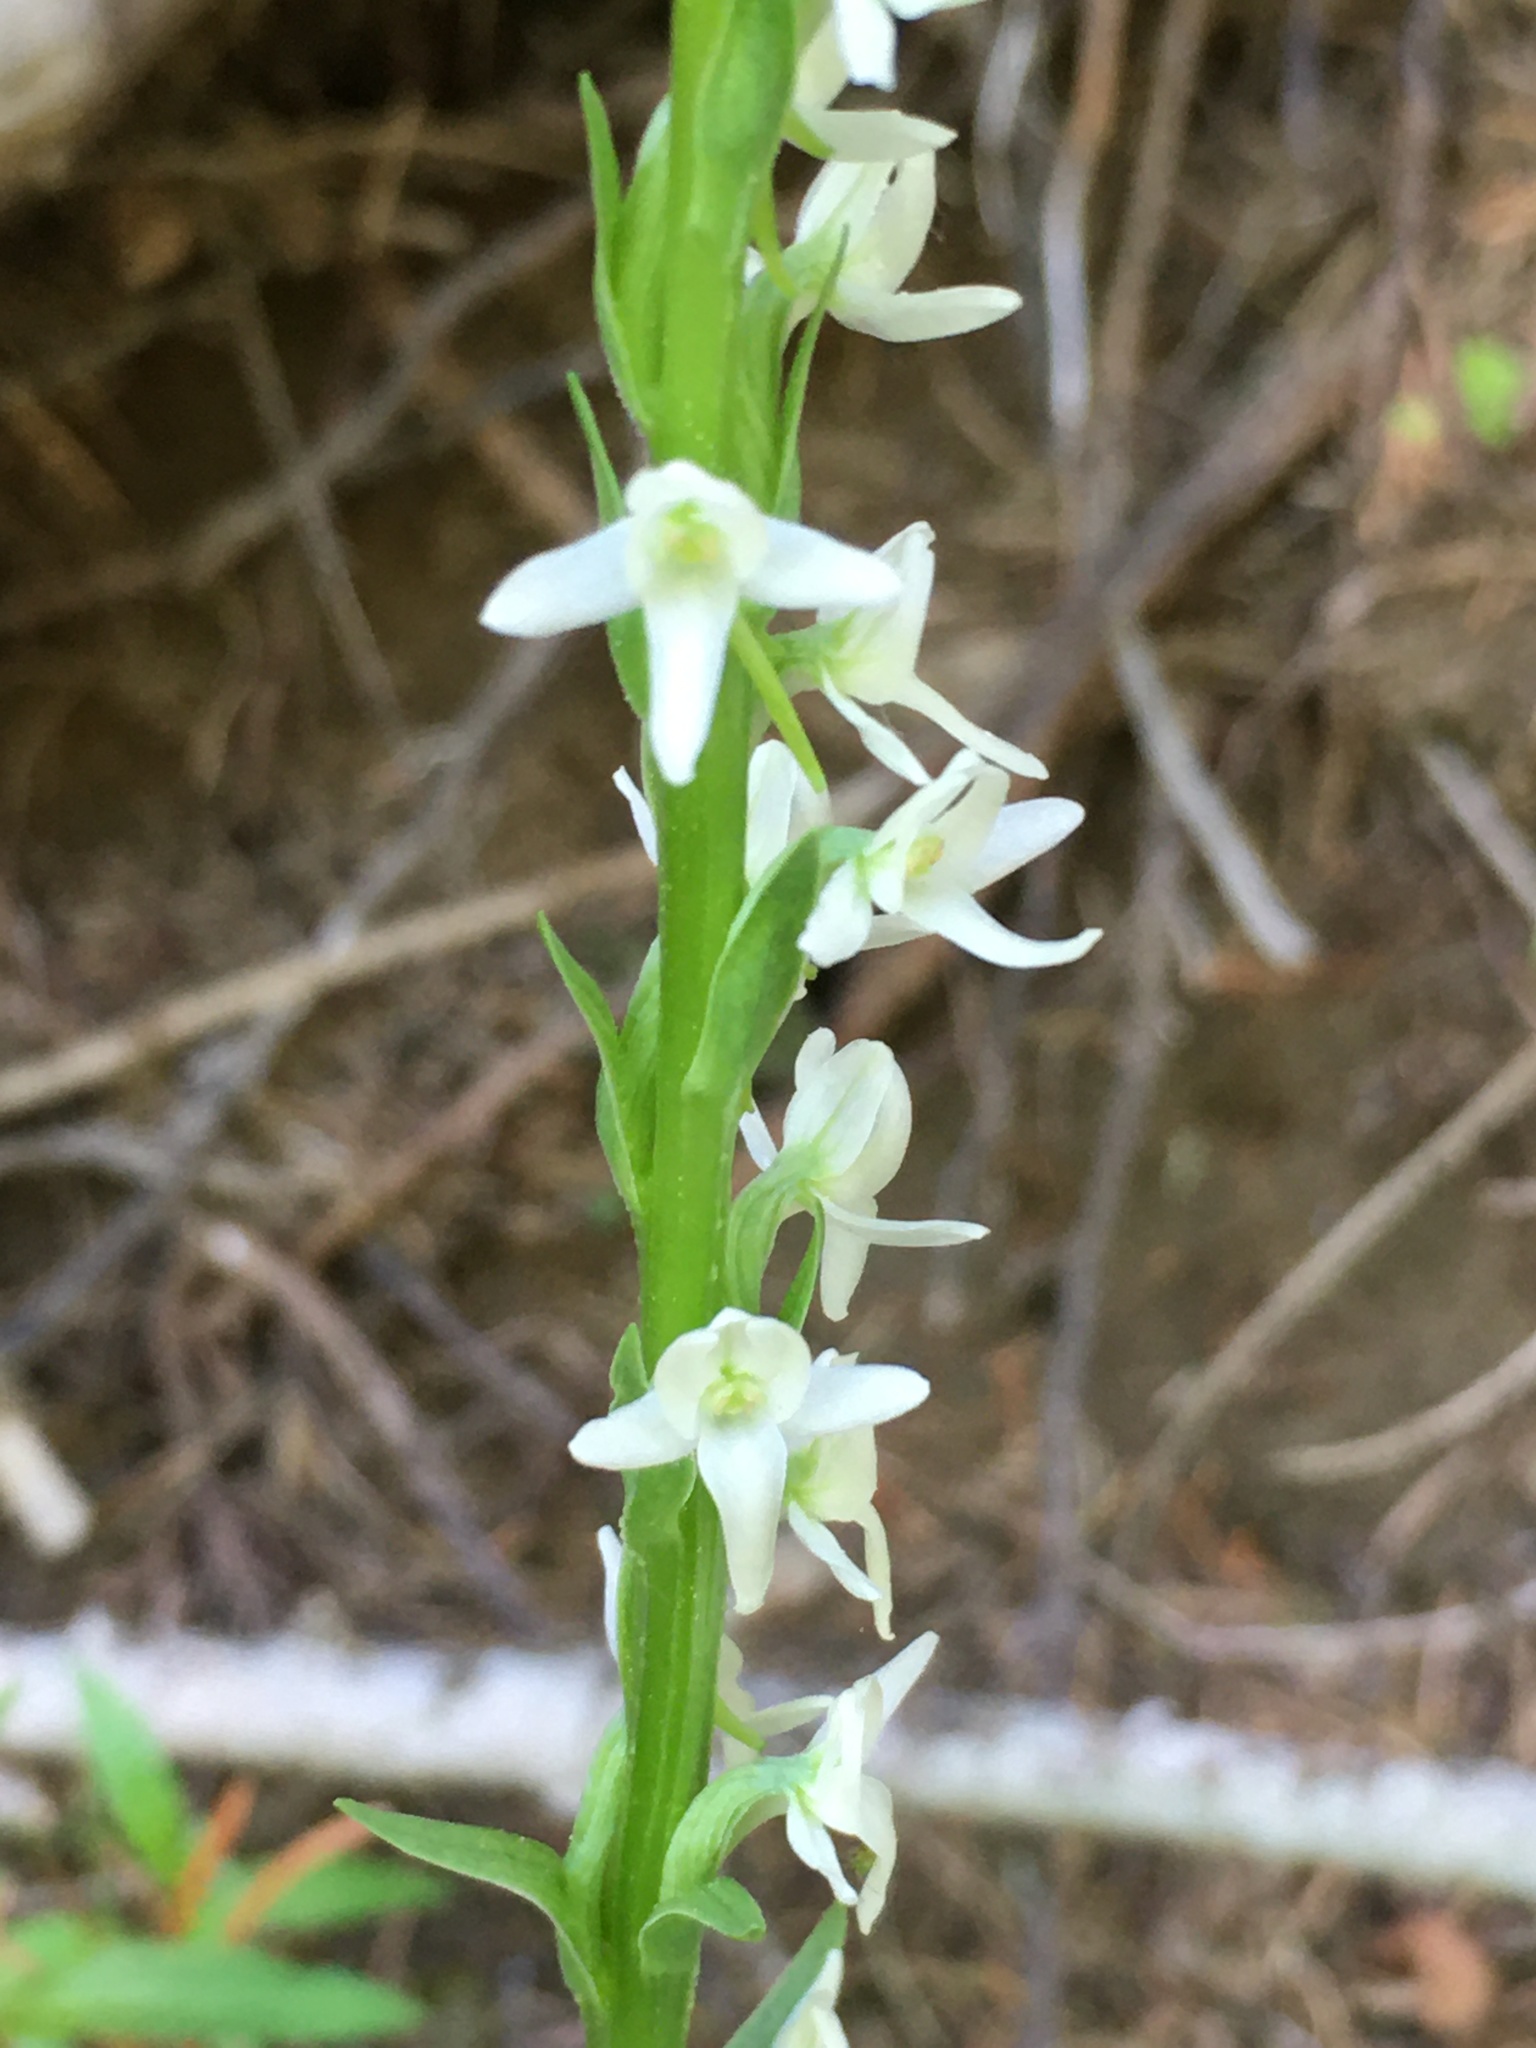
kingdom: Plantae
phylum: Tracheophyta
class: Liliopsida
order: Asparagales
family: Orchidaceae
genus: Platanthera
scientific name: Platanthera dilatata
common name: Bog candles
